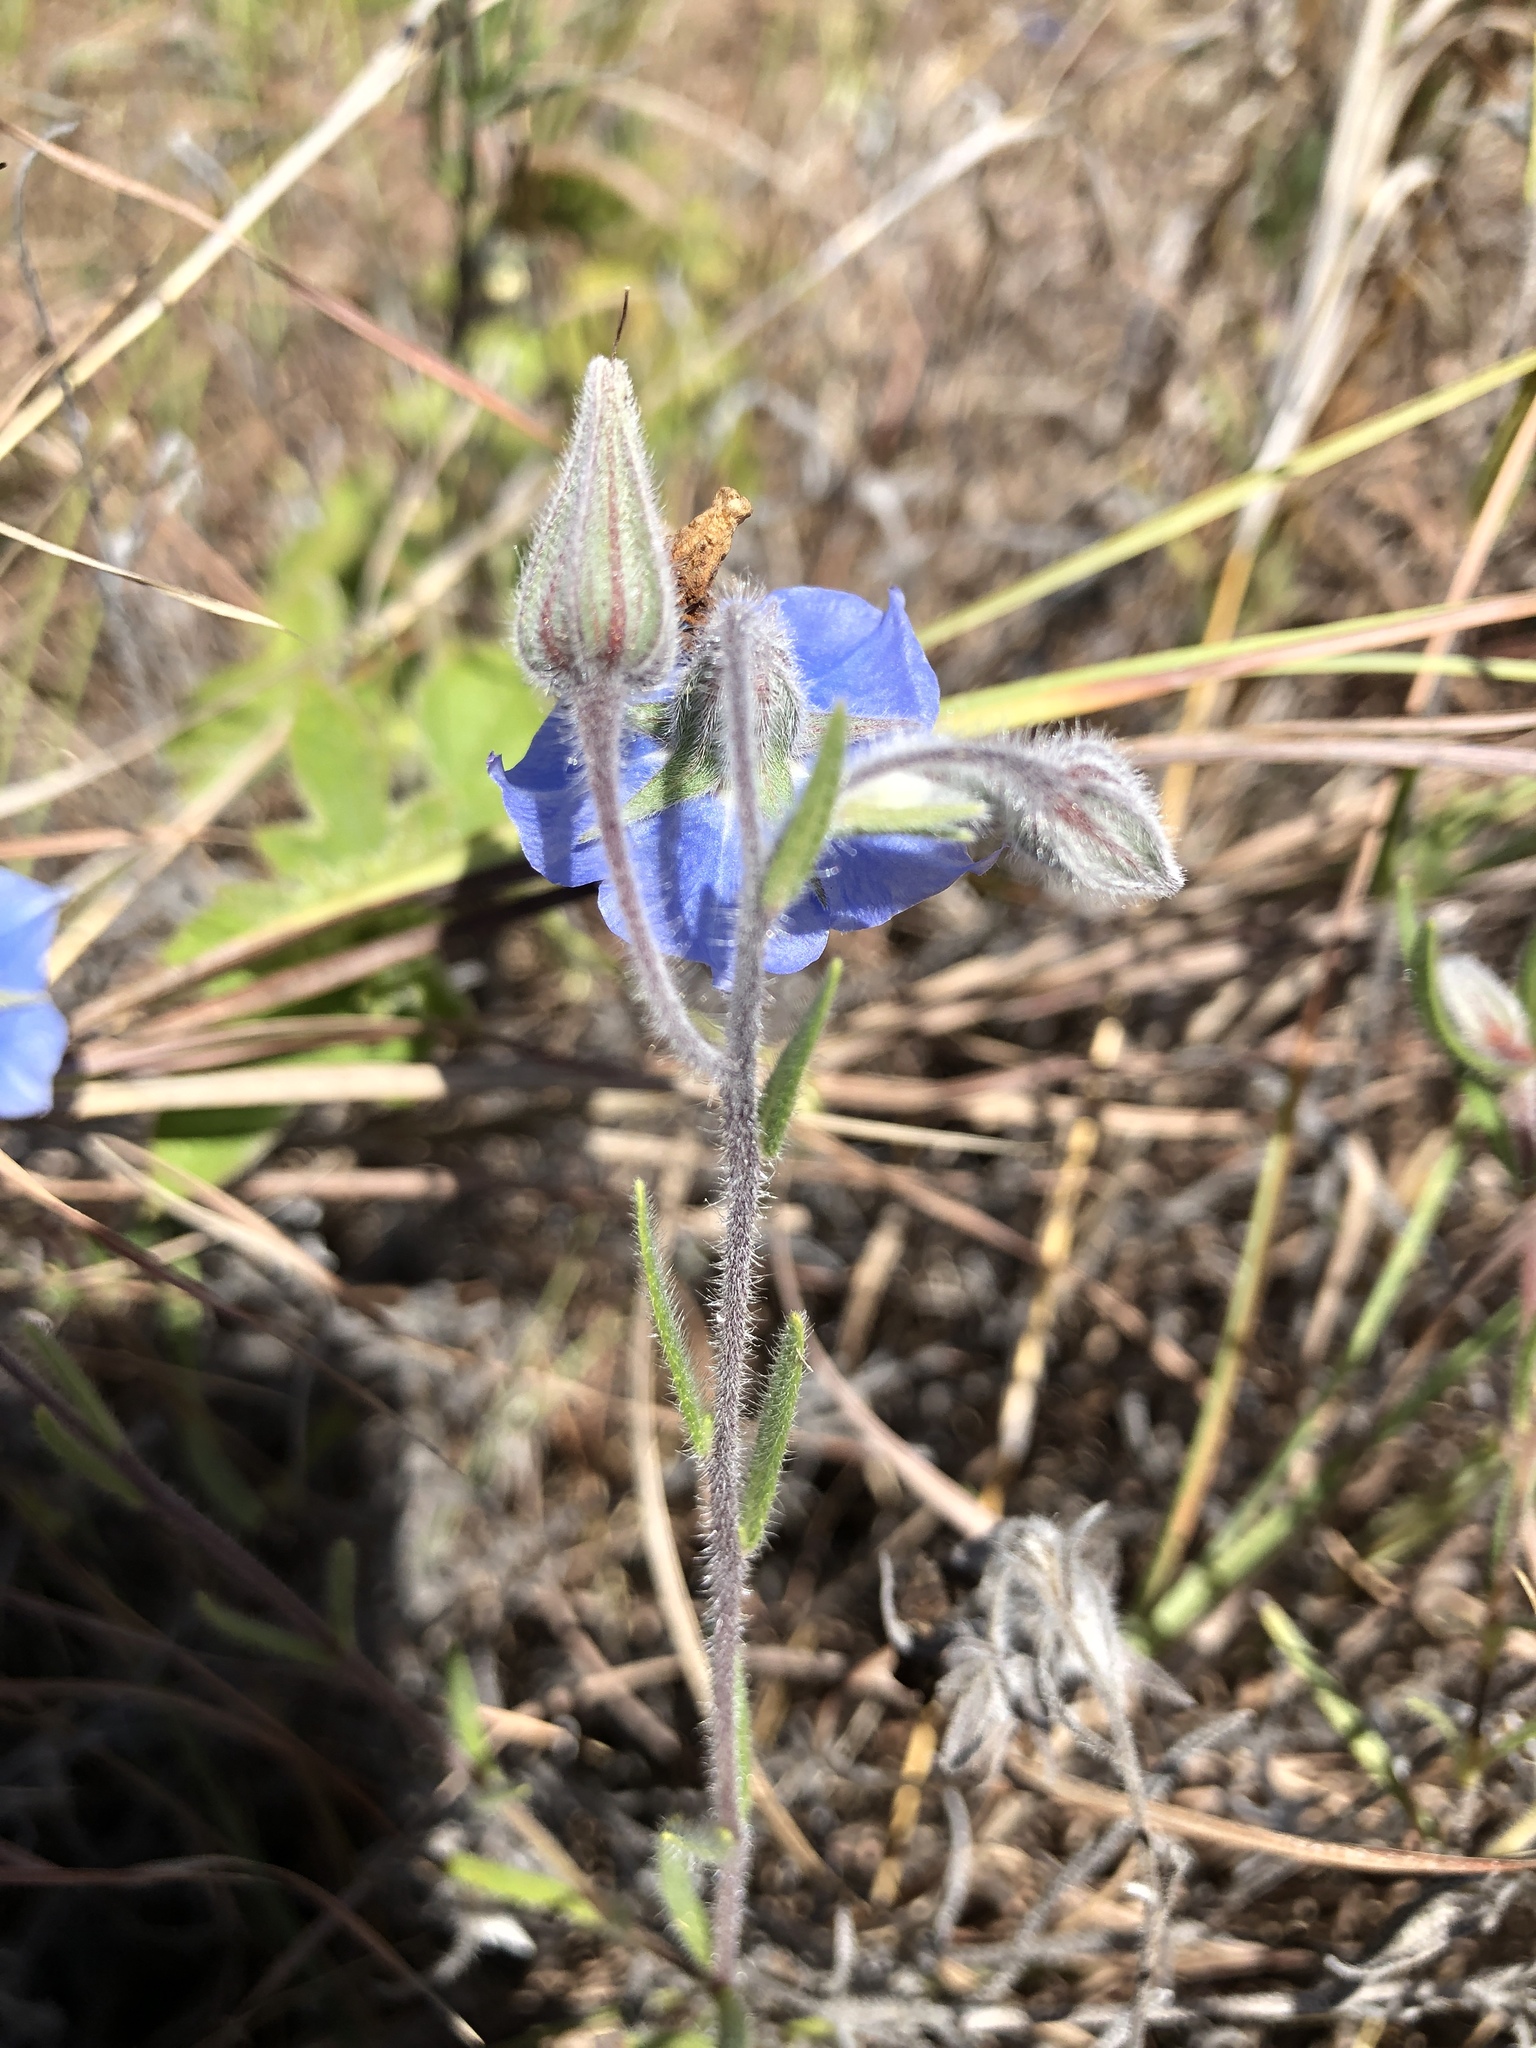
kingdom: Plantae
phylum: Tracheophyta
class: Magnoliopsida
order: Boraginales
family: Boraginaceae
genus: Trichodesma
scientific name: Trichodesma zeylanicum
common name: Camelbush
